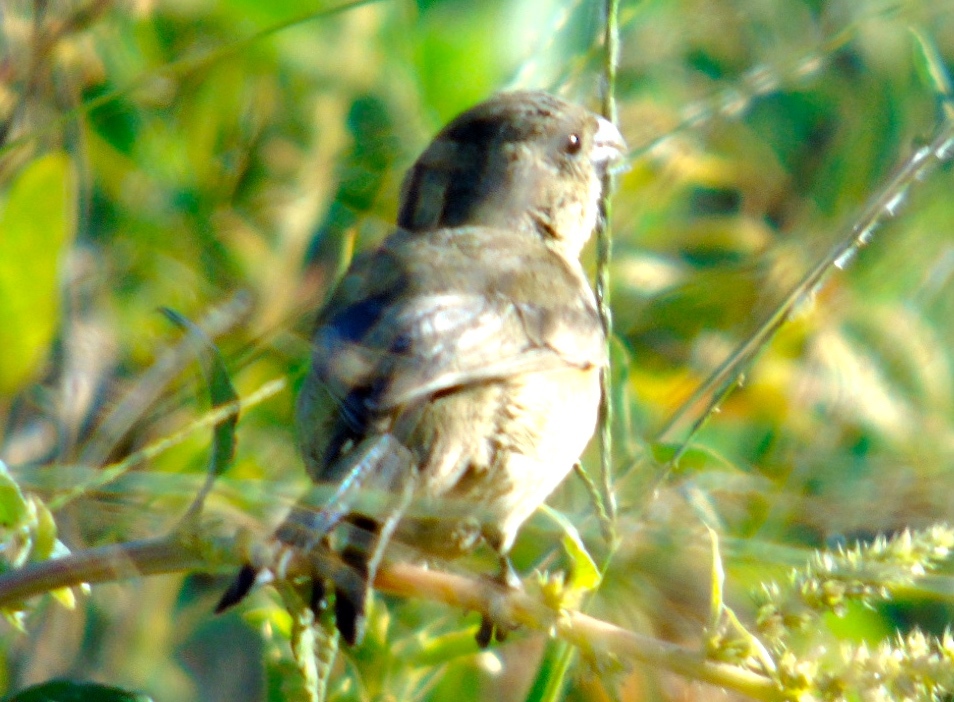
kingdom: Animalia
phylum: Chordata
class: Aves
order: Passeriformes
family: Thraupidae
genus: Sporophila
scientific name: Sporophila torqueola
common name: White-collared seedeater
